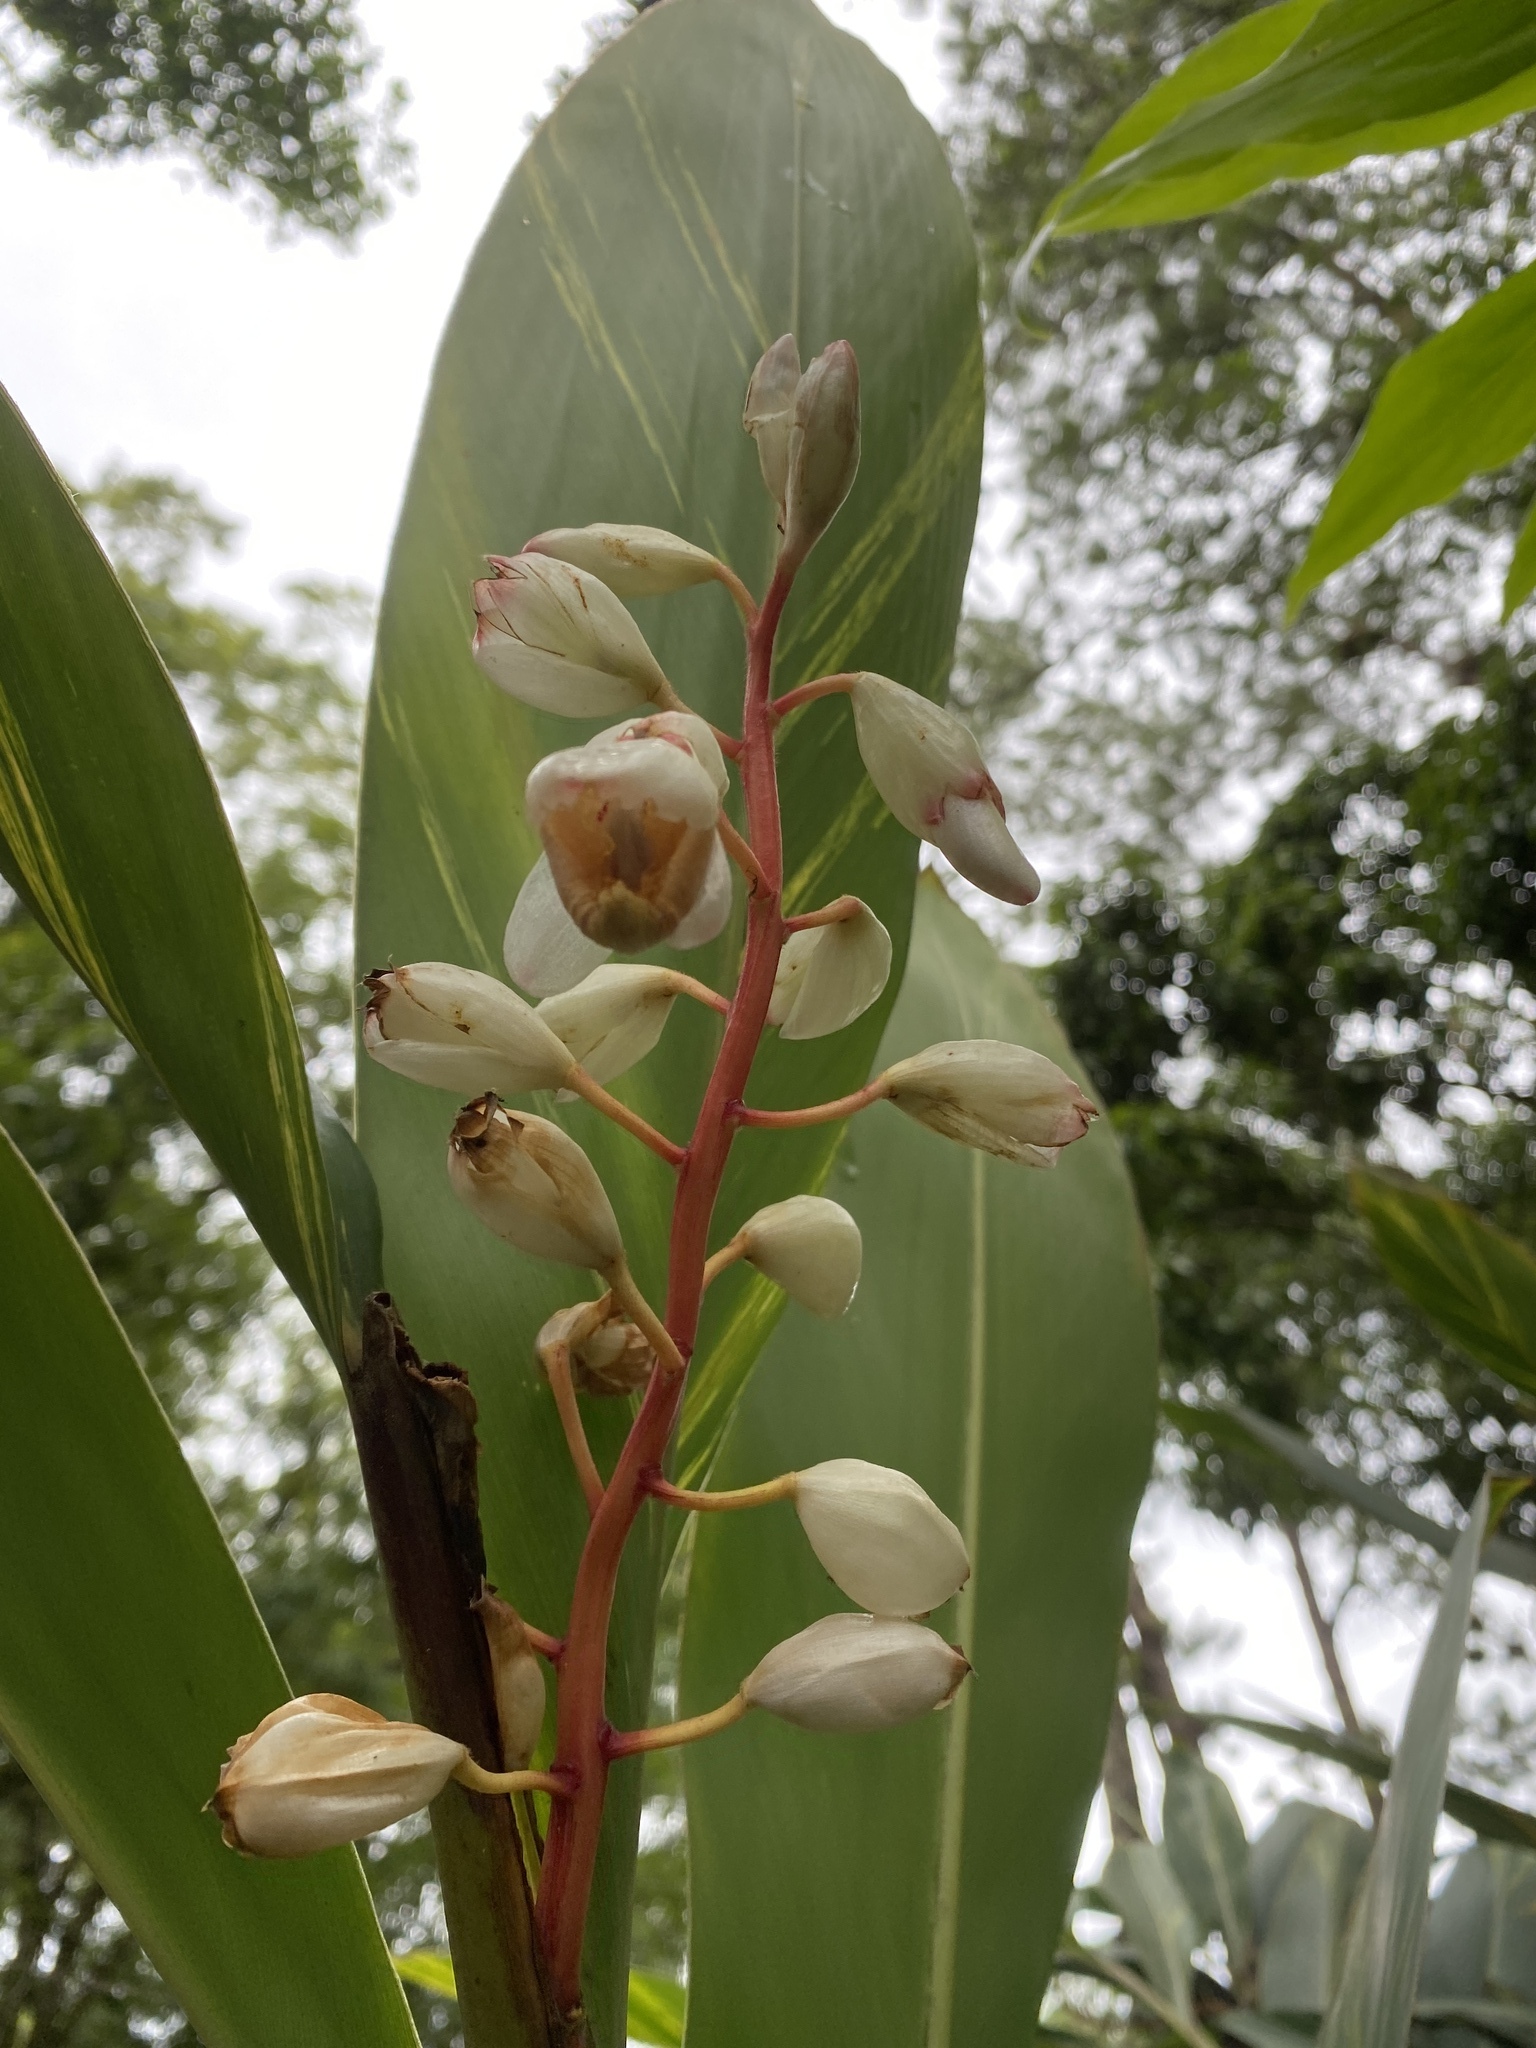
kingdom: Plantae
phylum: Tracheophyta
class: Liliopsida
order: Zingiberales
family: Zingiberaceae
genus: Alpinia
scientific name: Alpinia zerumbet
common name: Shellplant
